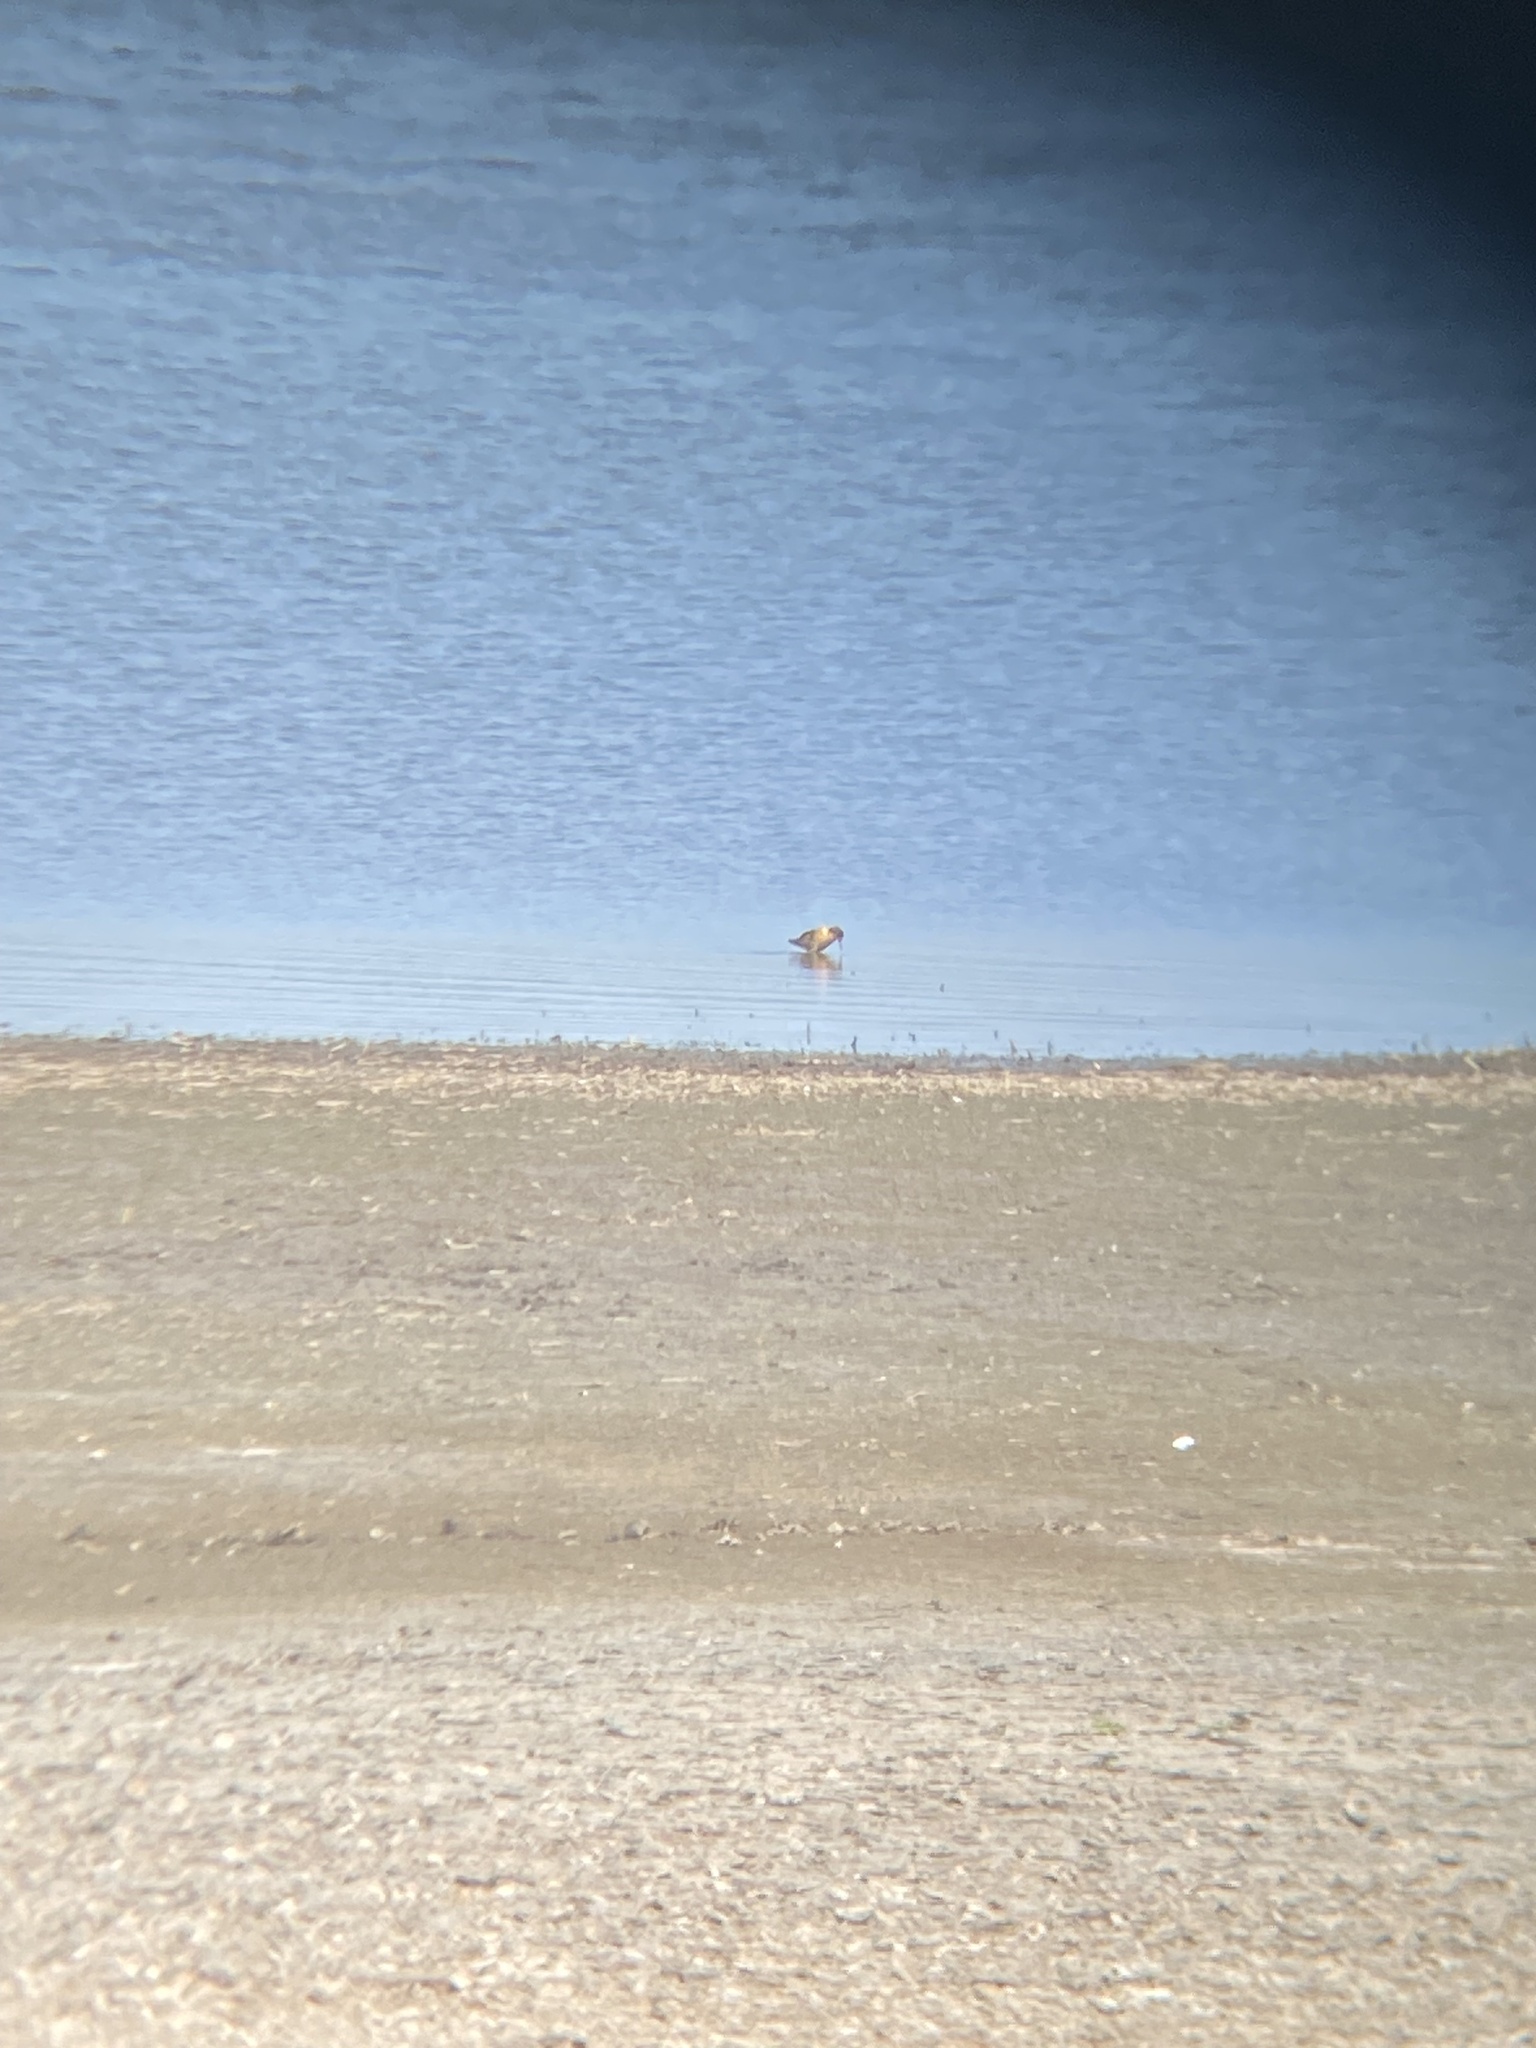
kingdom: Animalia
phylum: Chordata
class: Aves
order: Charadriiformes
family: Scolopacidae
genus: Calidris
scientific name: Calidris pugnax
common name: Ruff
